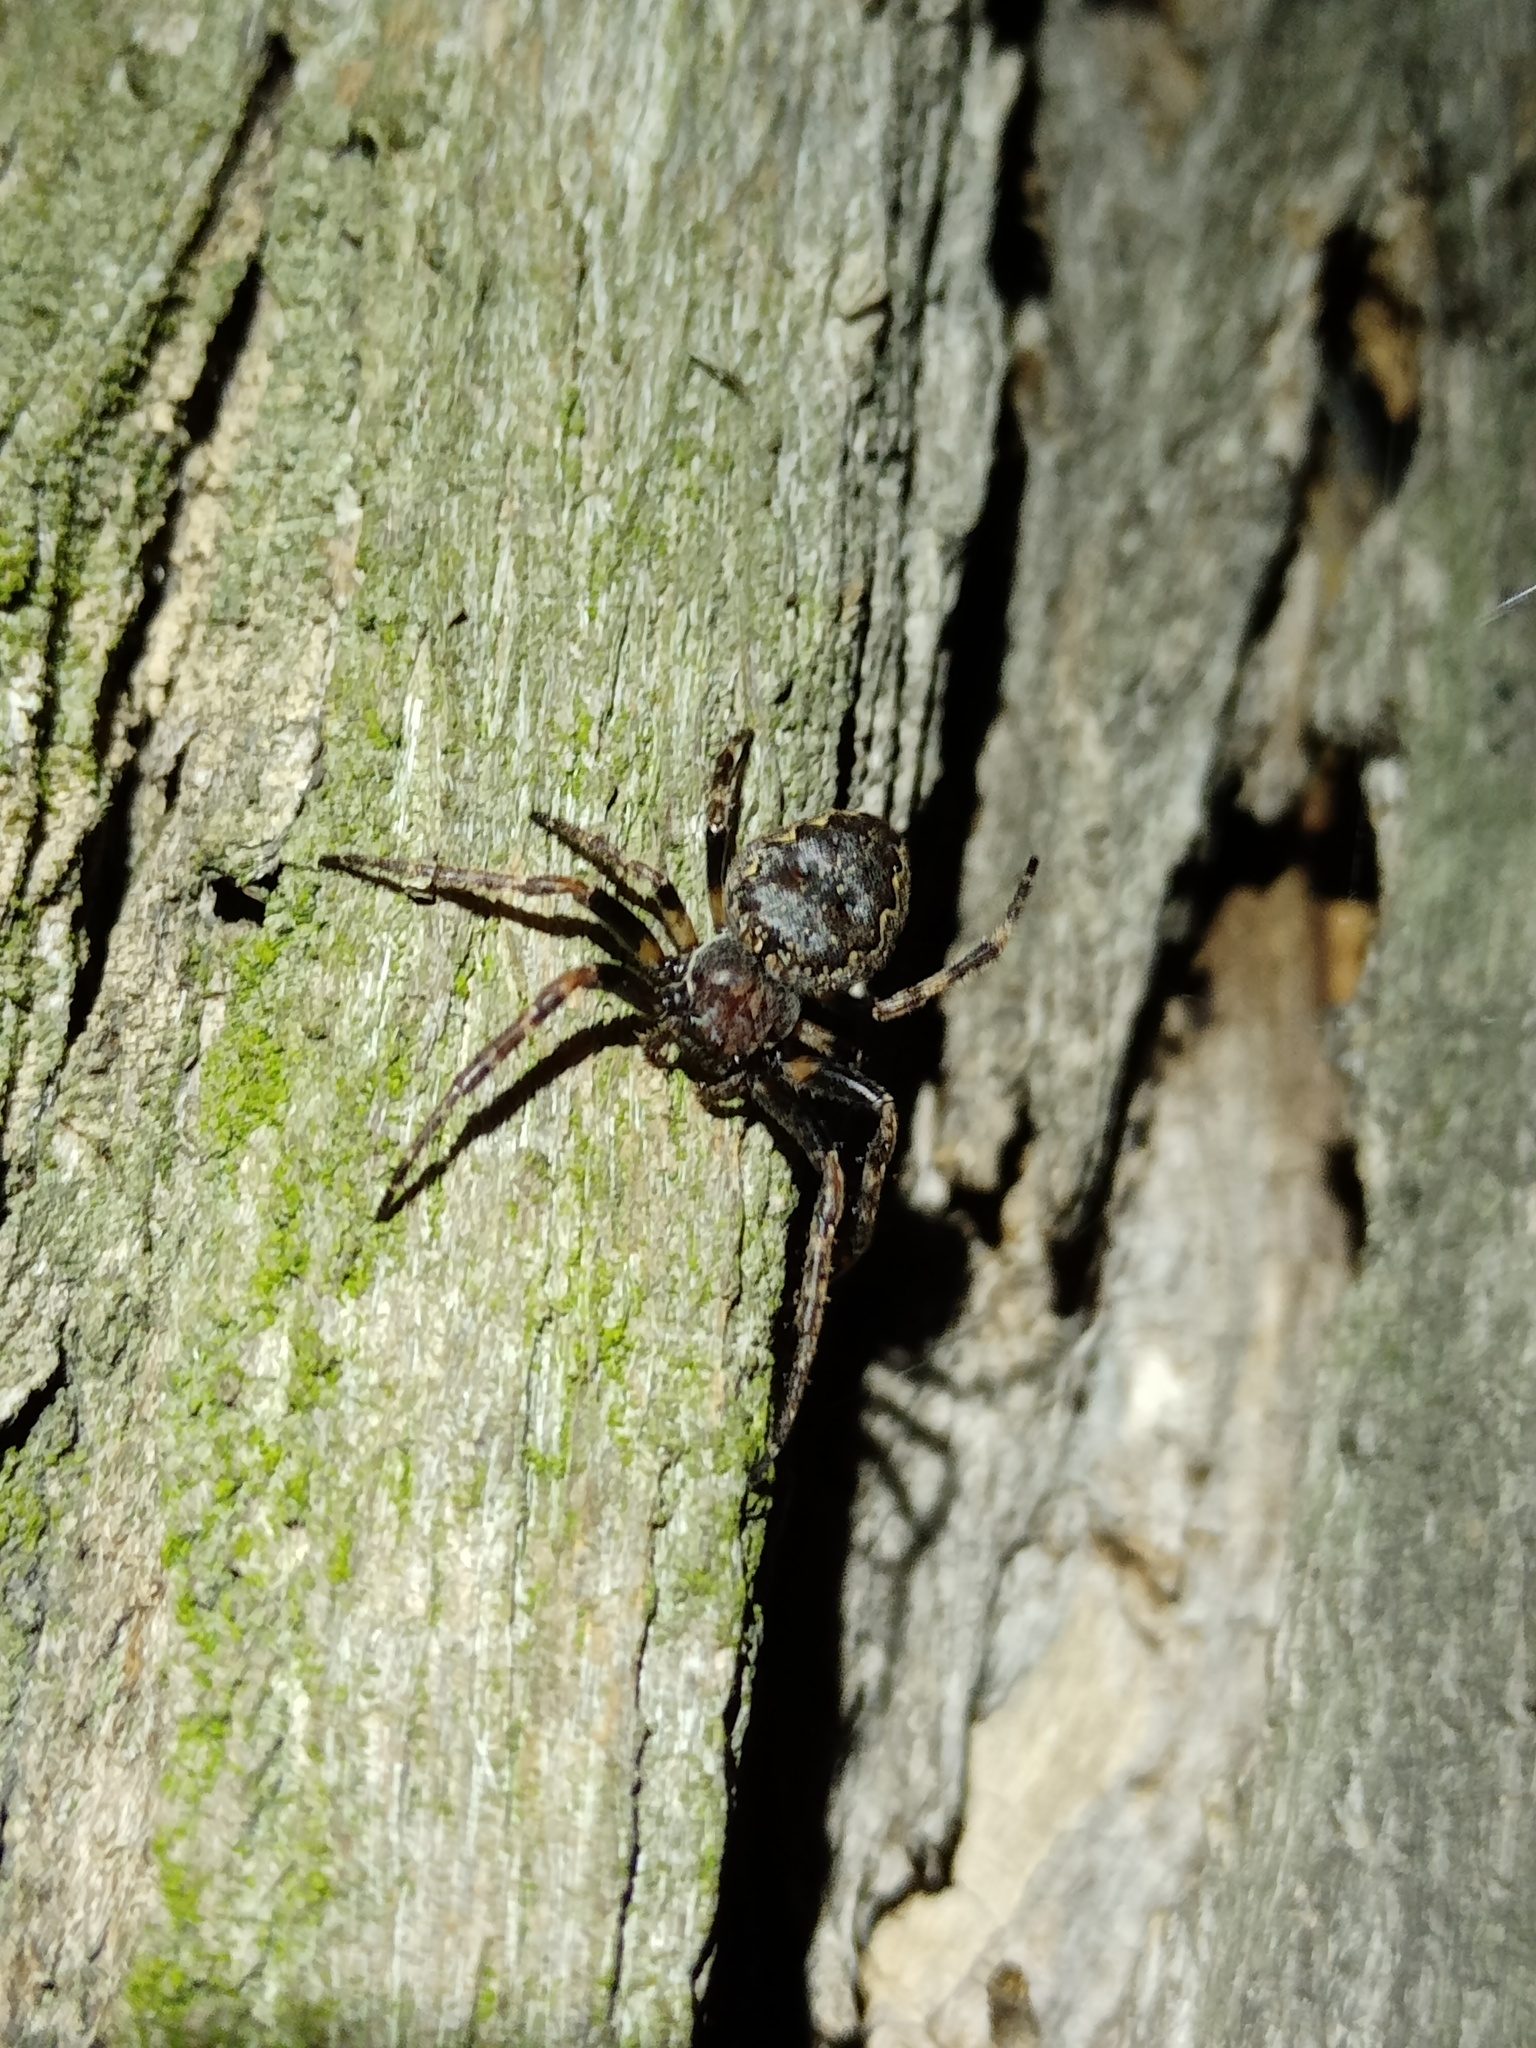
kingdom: Animalia
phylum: Arthropoda
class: Arachnida
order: Araneae
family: Araneidae
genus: Nuctenea
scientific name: Nuctenea umbratica
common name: Toad spider
